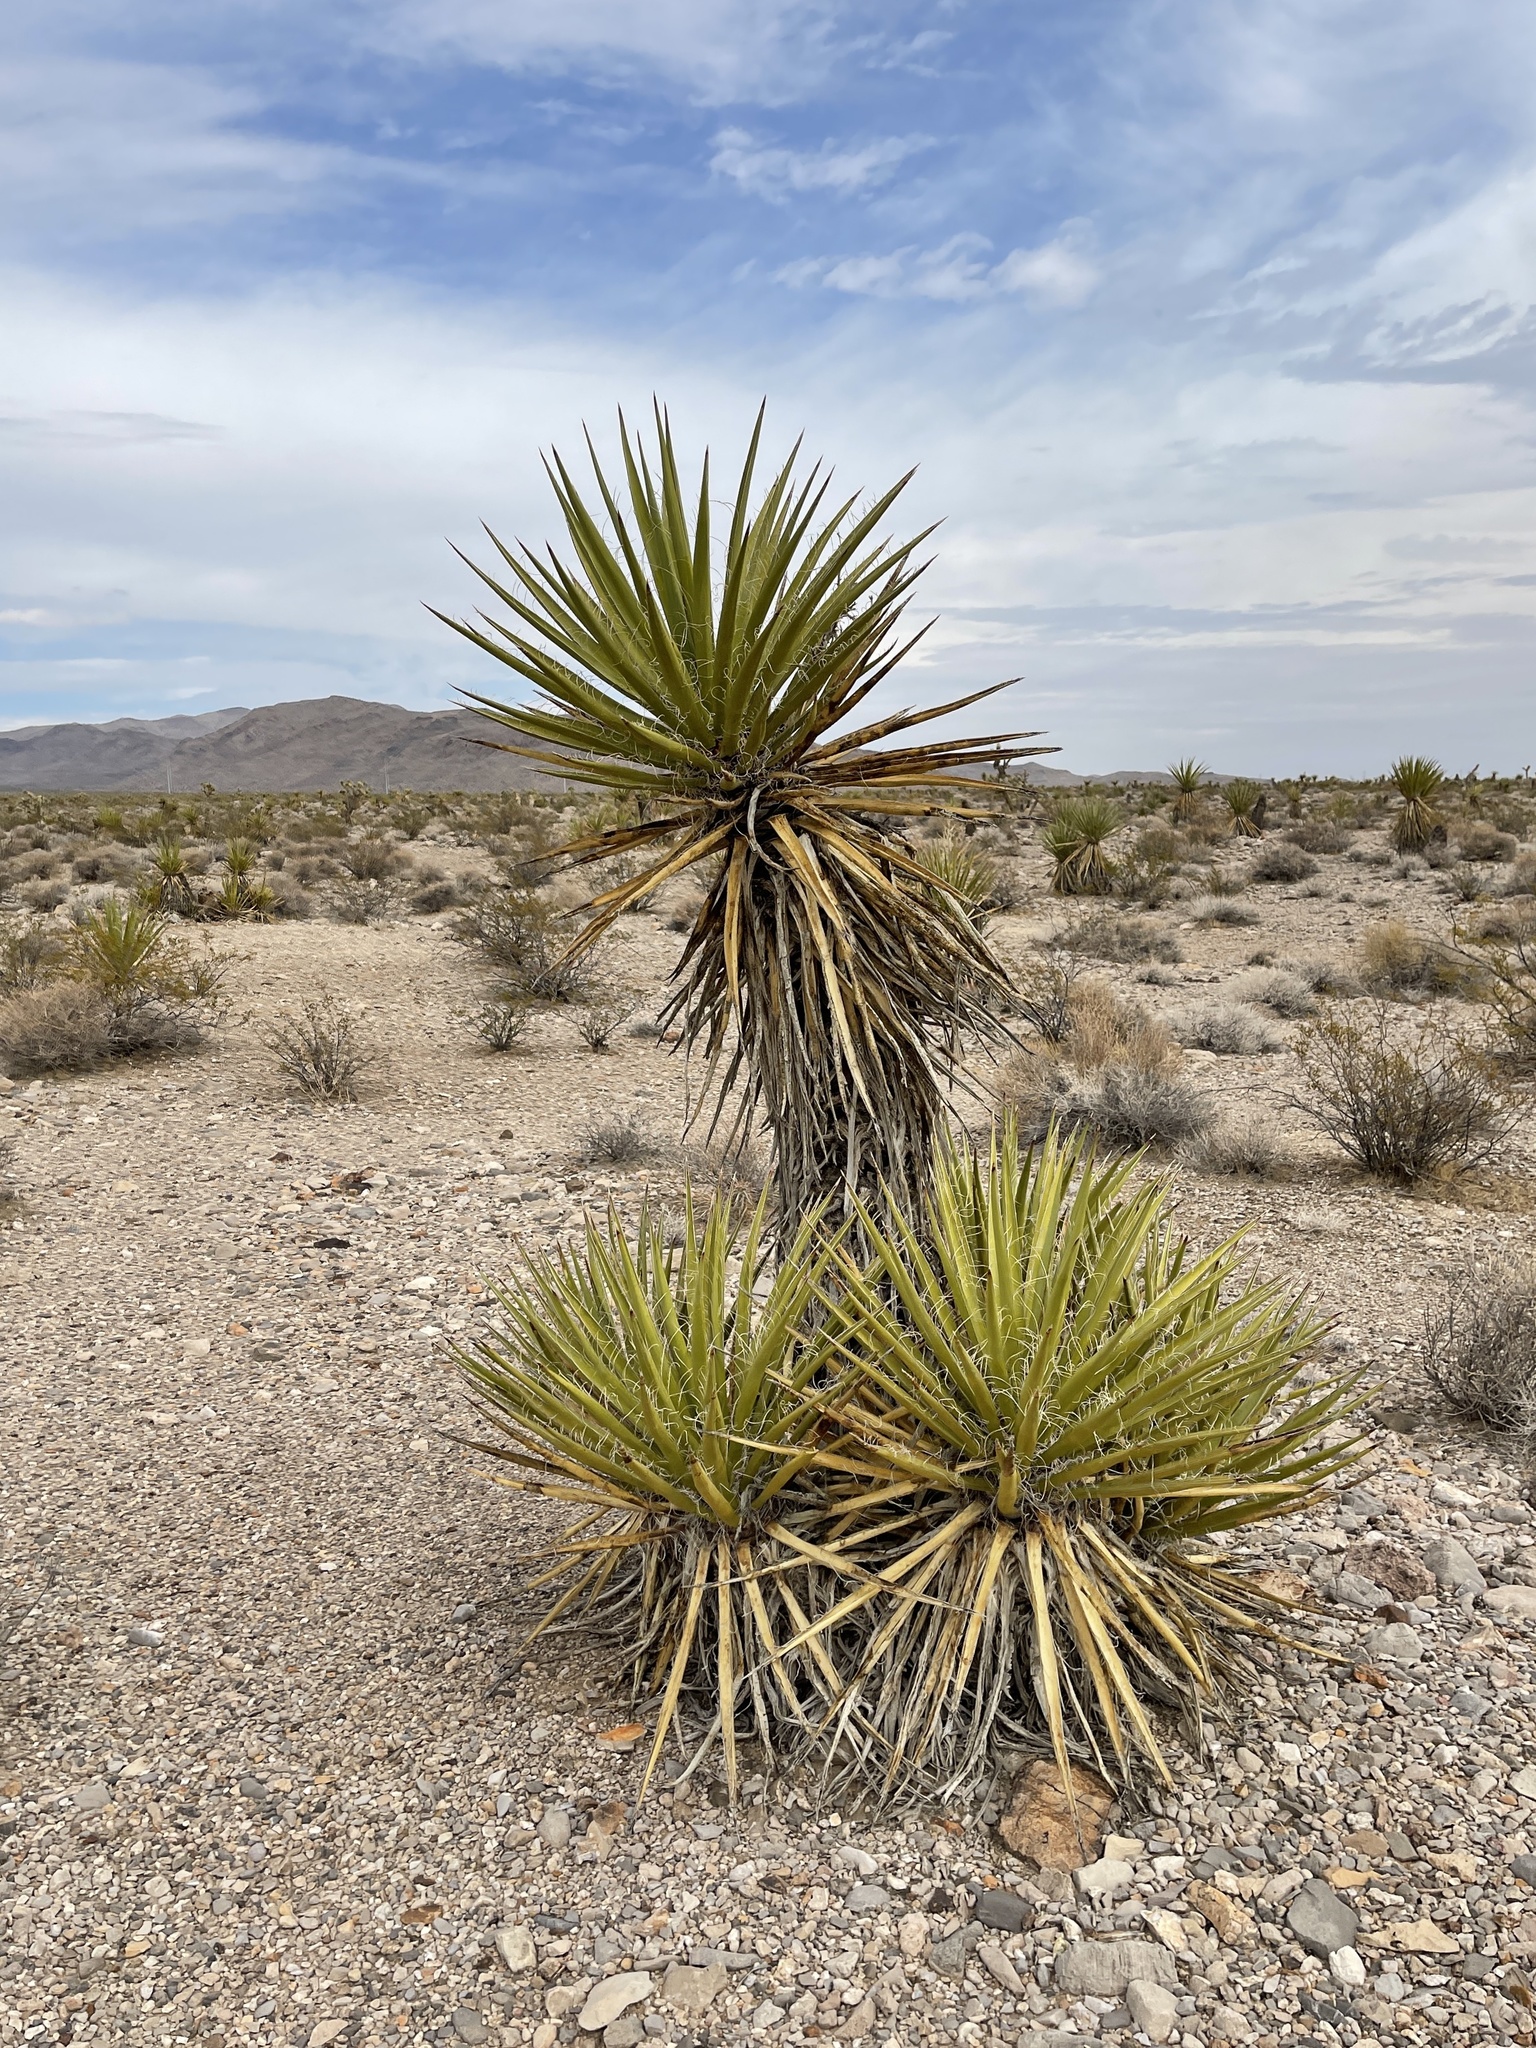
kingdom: Plantae
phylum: Tracheophyta
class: Liliopsida
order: Asparagales
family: Asparagaceae
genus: Yucca
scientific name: Yucca schidigera
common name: Mojave yucca
